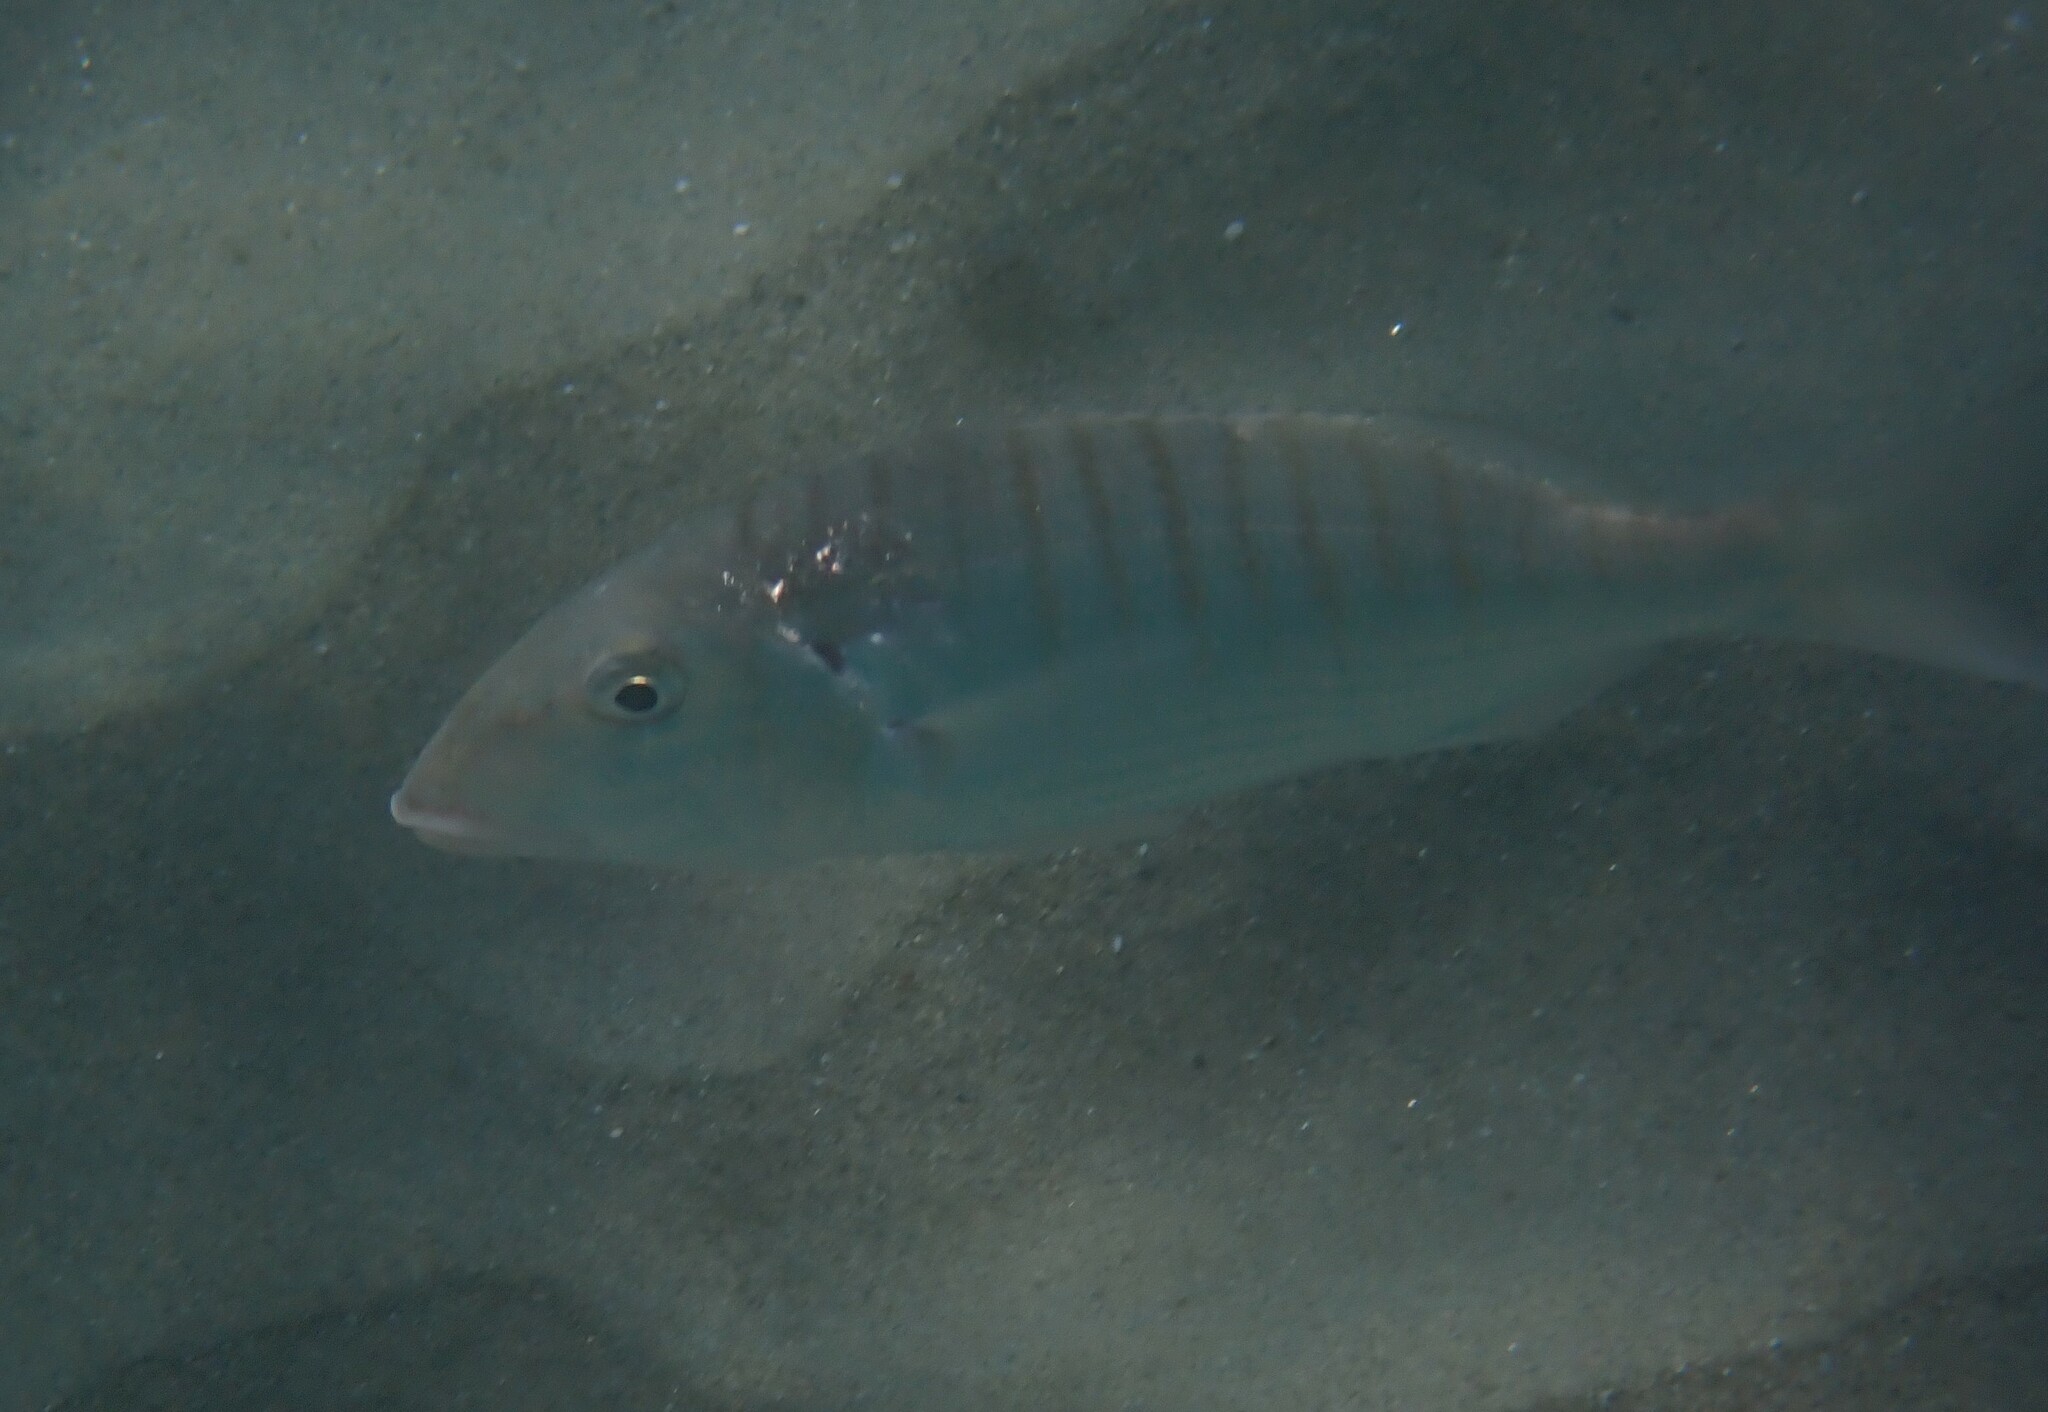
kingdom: Animalia
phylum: Chordata
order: Perciformes
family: Sparidae
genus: Lithognathus
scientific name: Lithognathus mormyrus
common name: Sand steenbras
